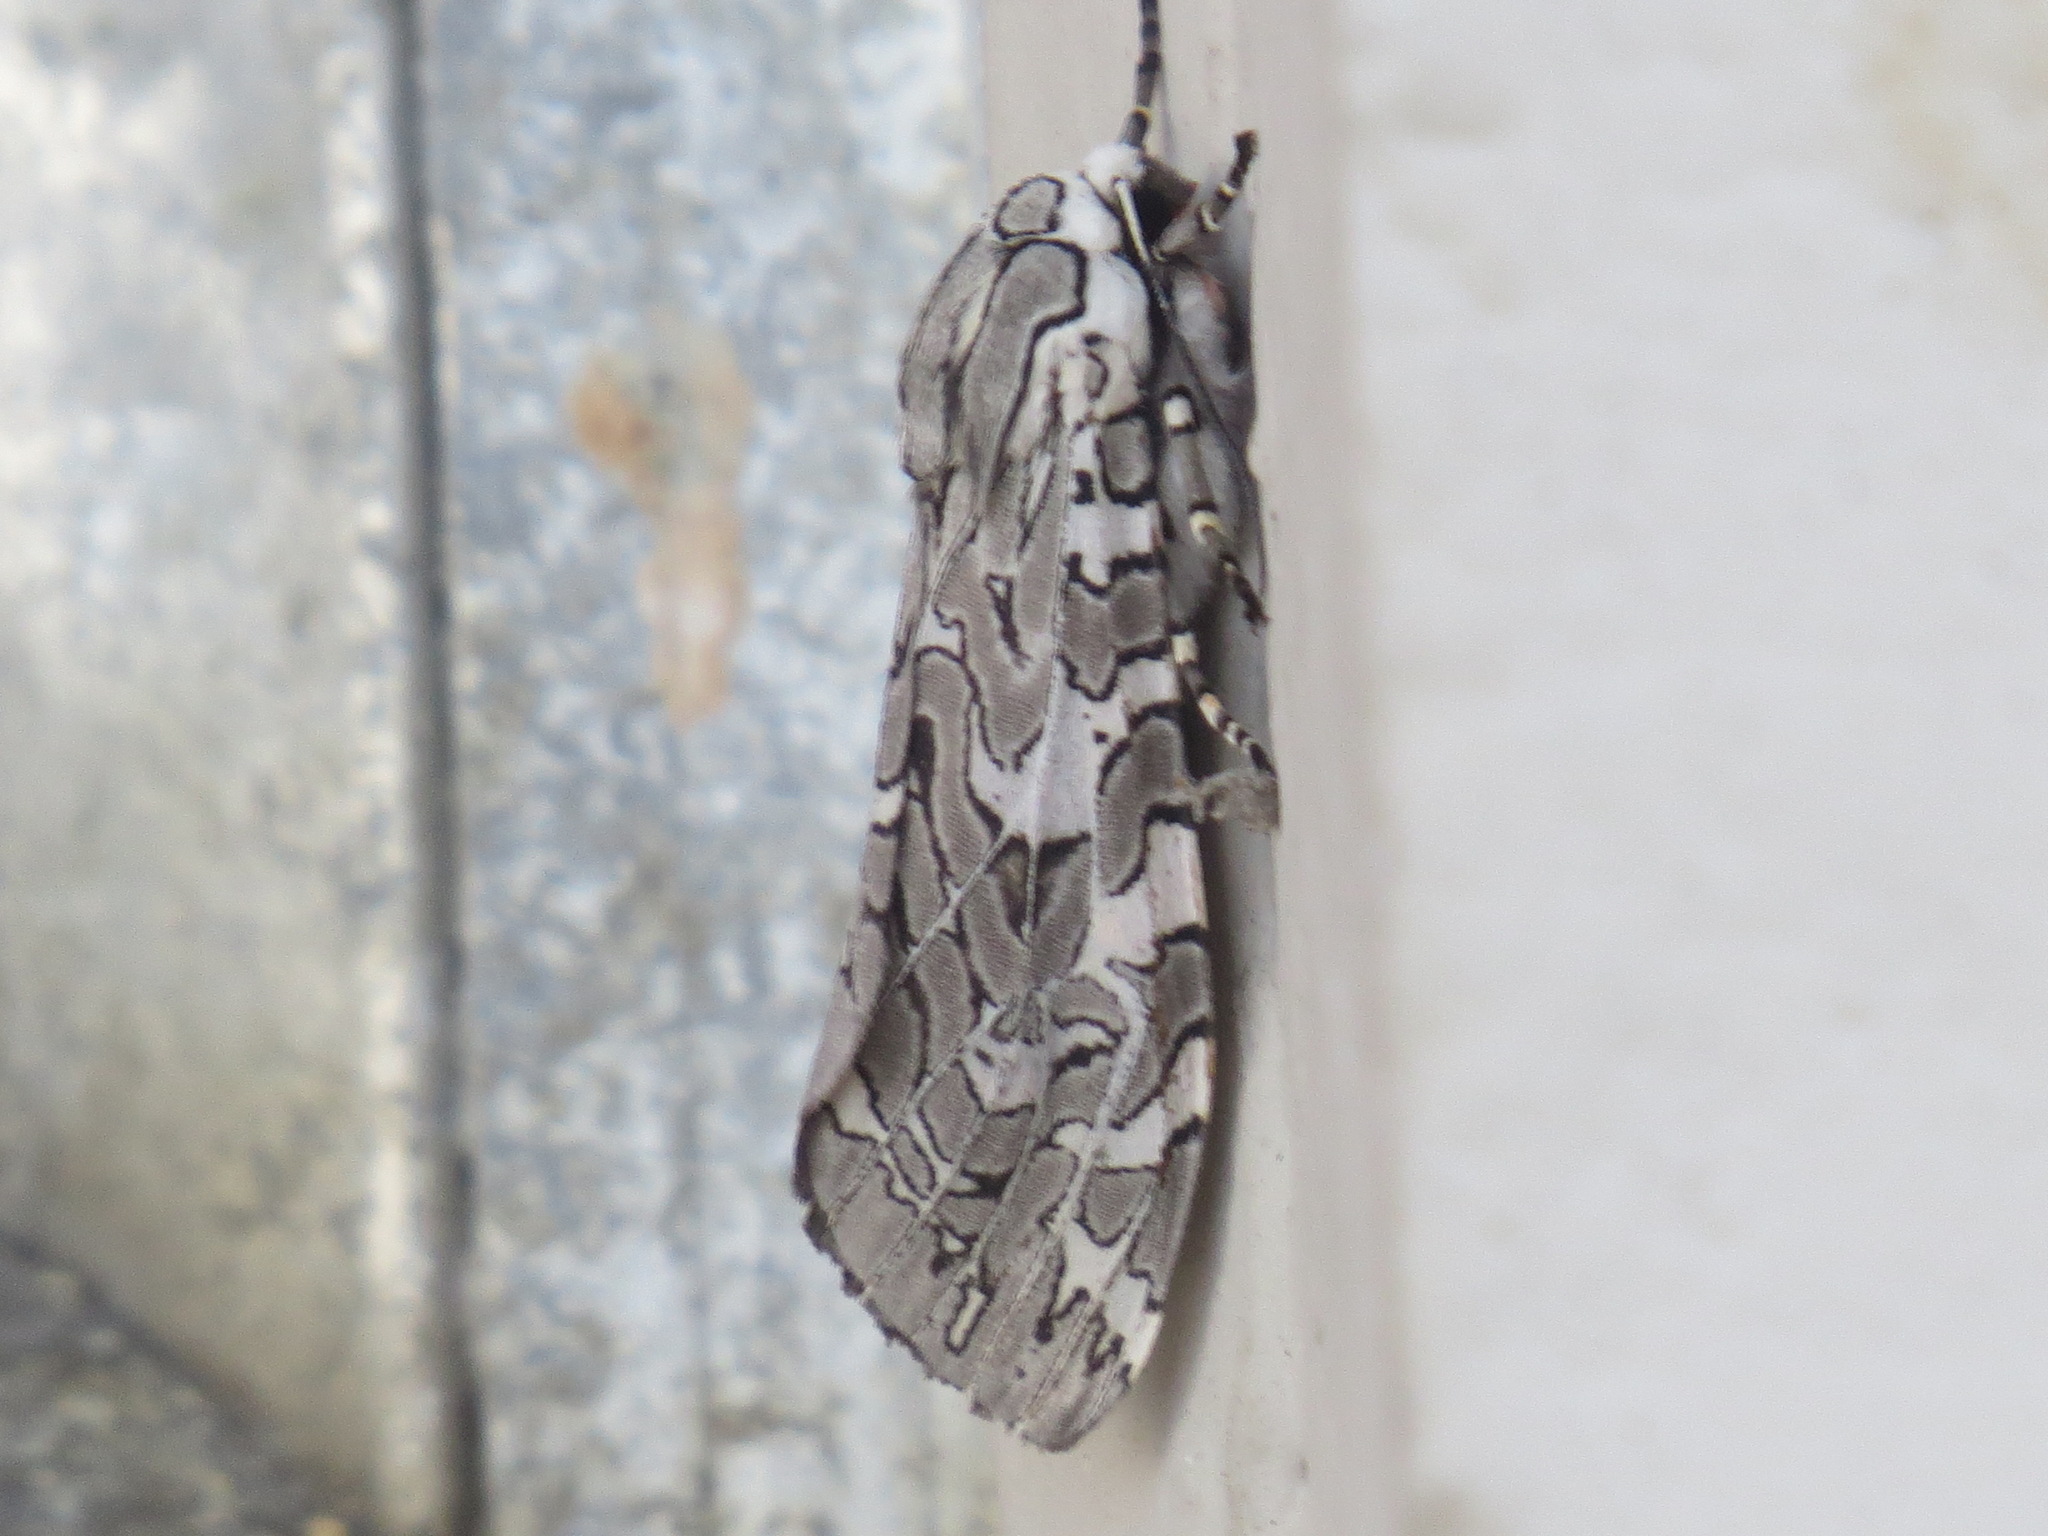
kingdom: Animalia
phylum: Arthropoda
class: Insecta
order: Lepidoptera
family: Erebidae
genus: Arachnis
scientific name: Arachnis picta
